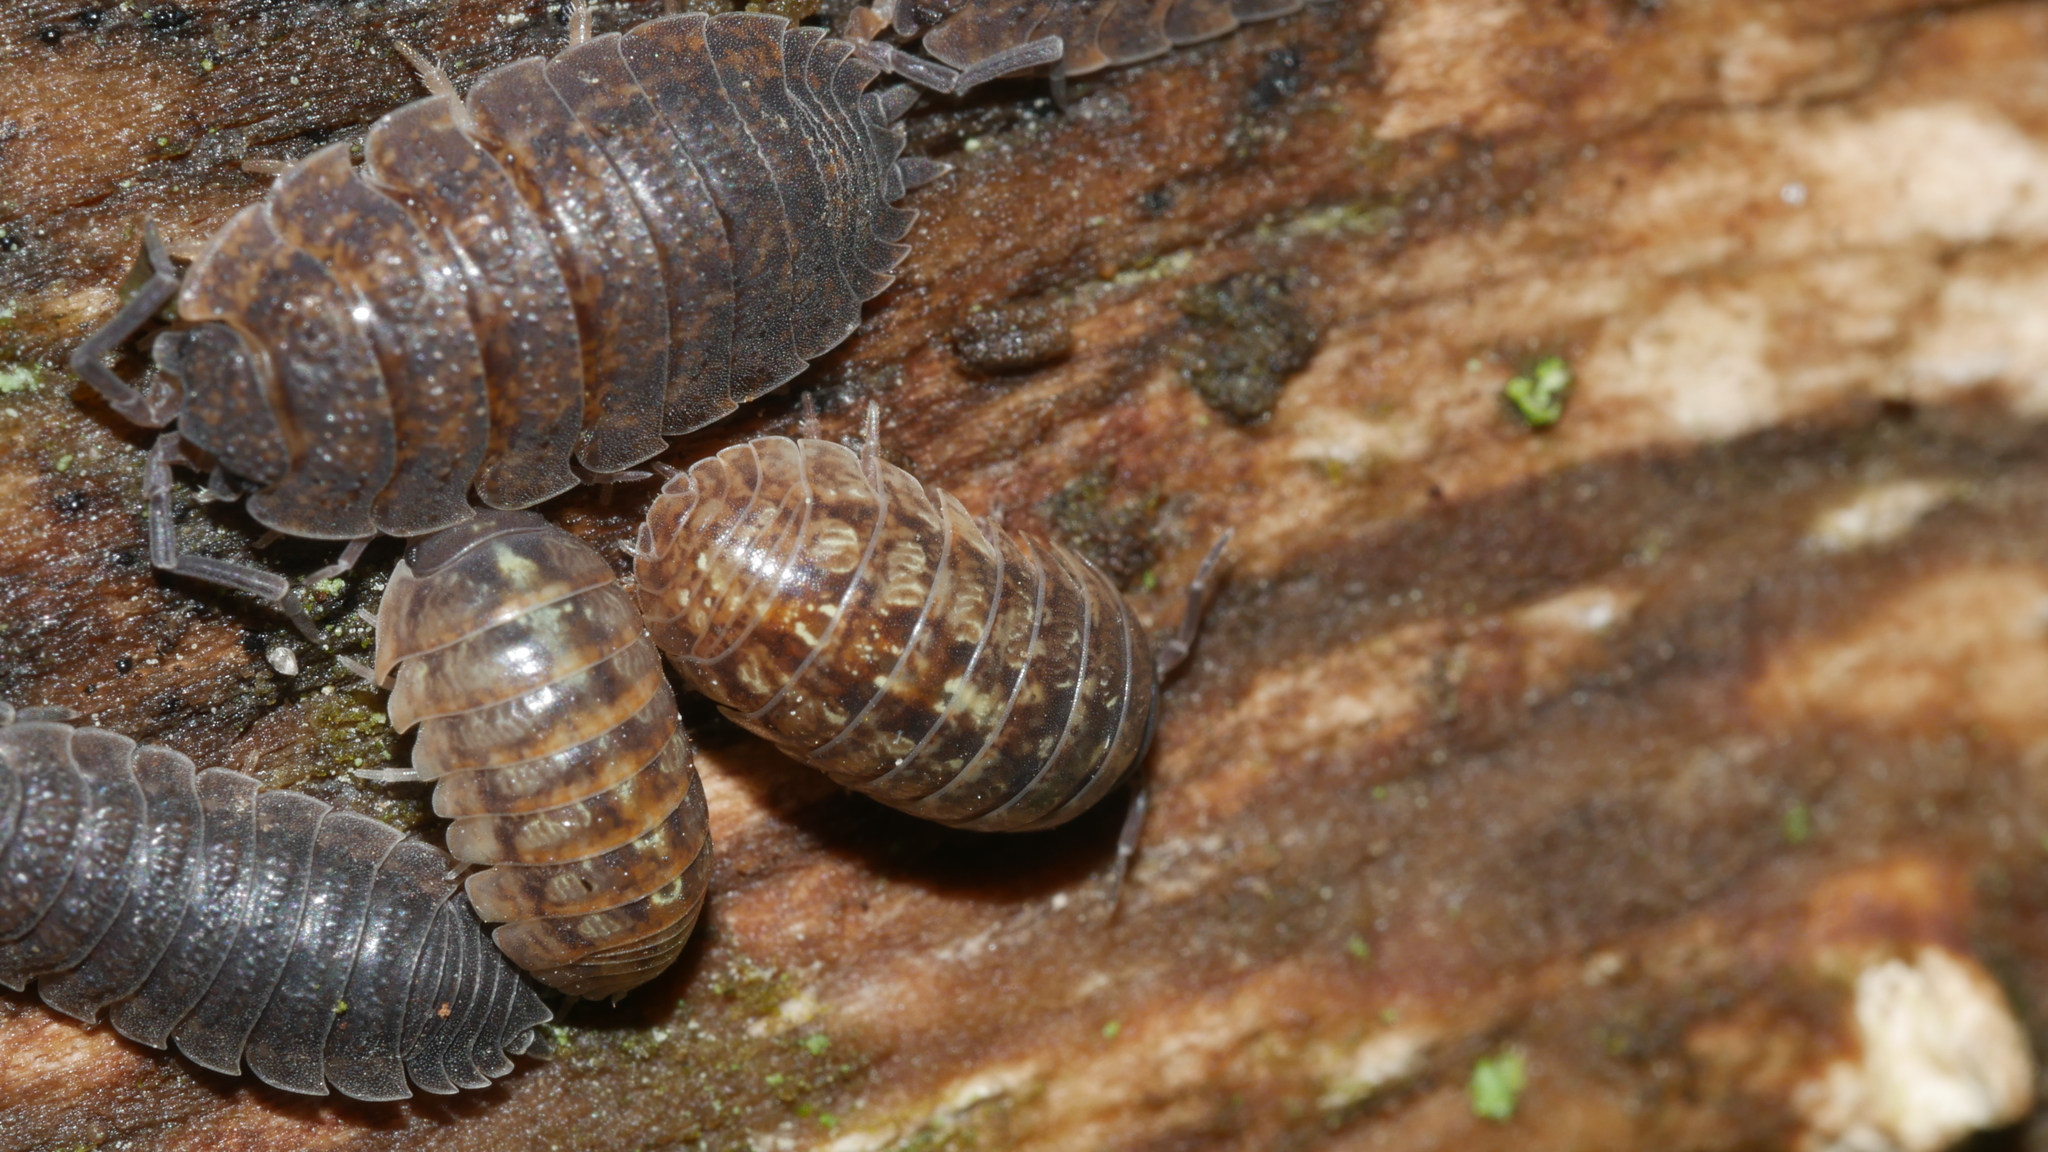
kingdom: Animalia
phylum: Arthropoda
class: Malacostraca
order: Isopoda
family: Armadillidiidae
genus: Armadillidium
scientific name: Armadillidium vulgare
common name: Common pill woodlouse
